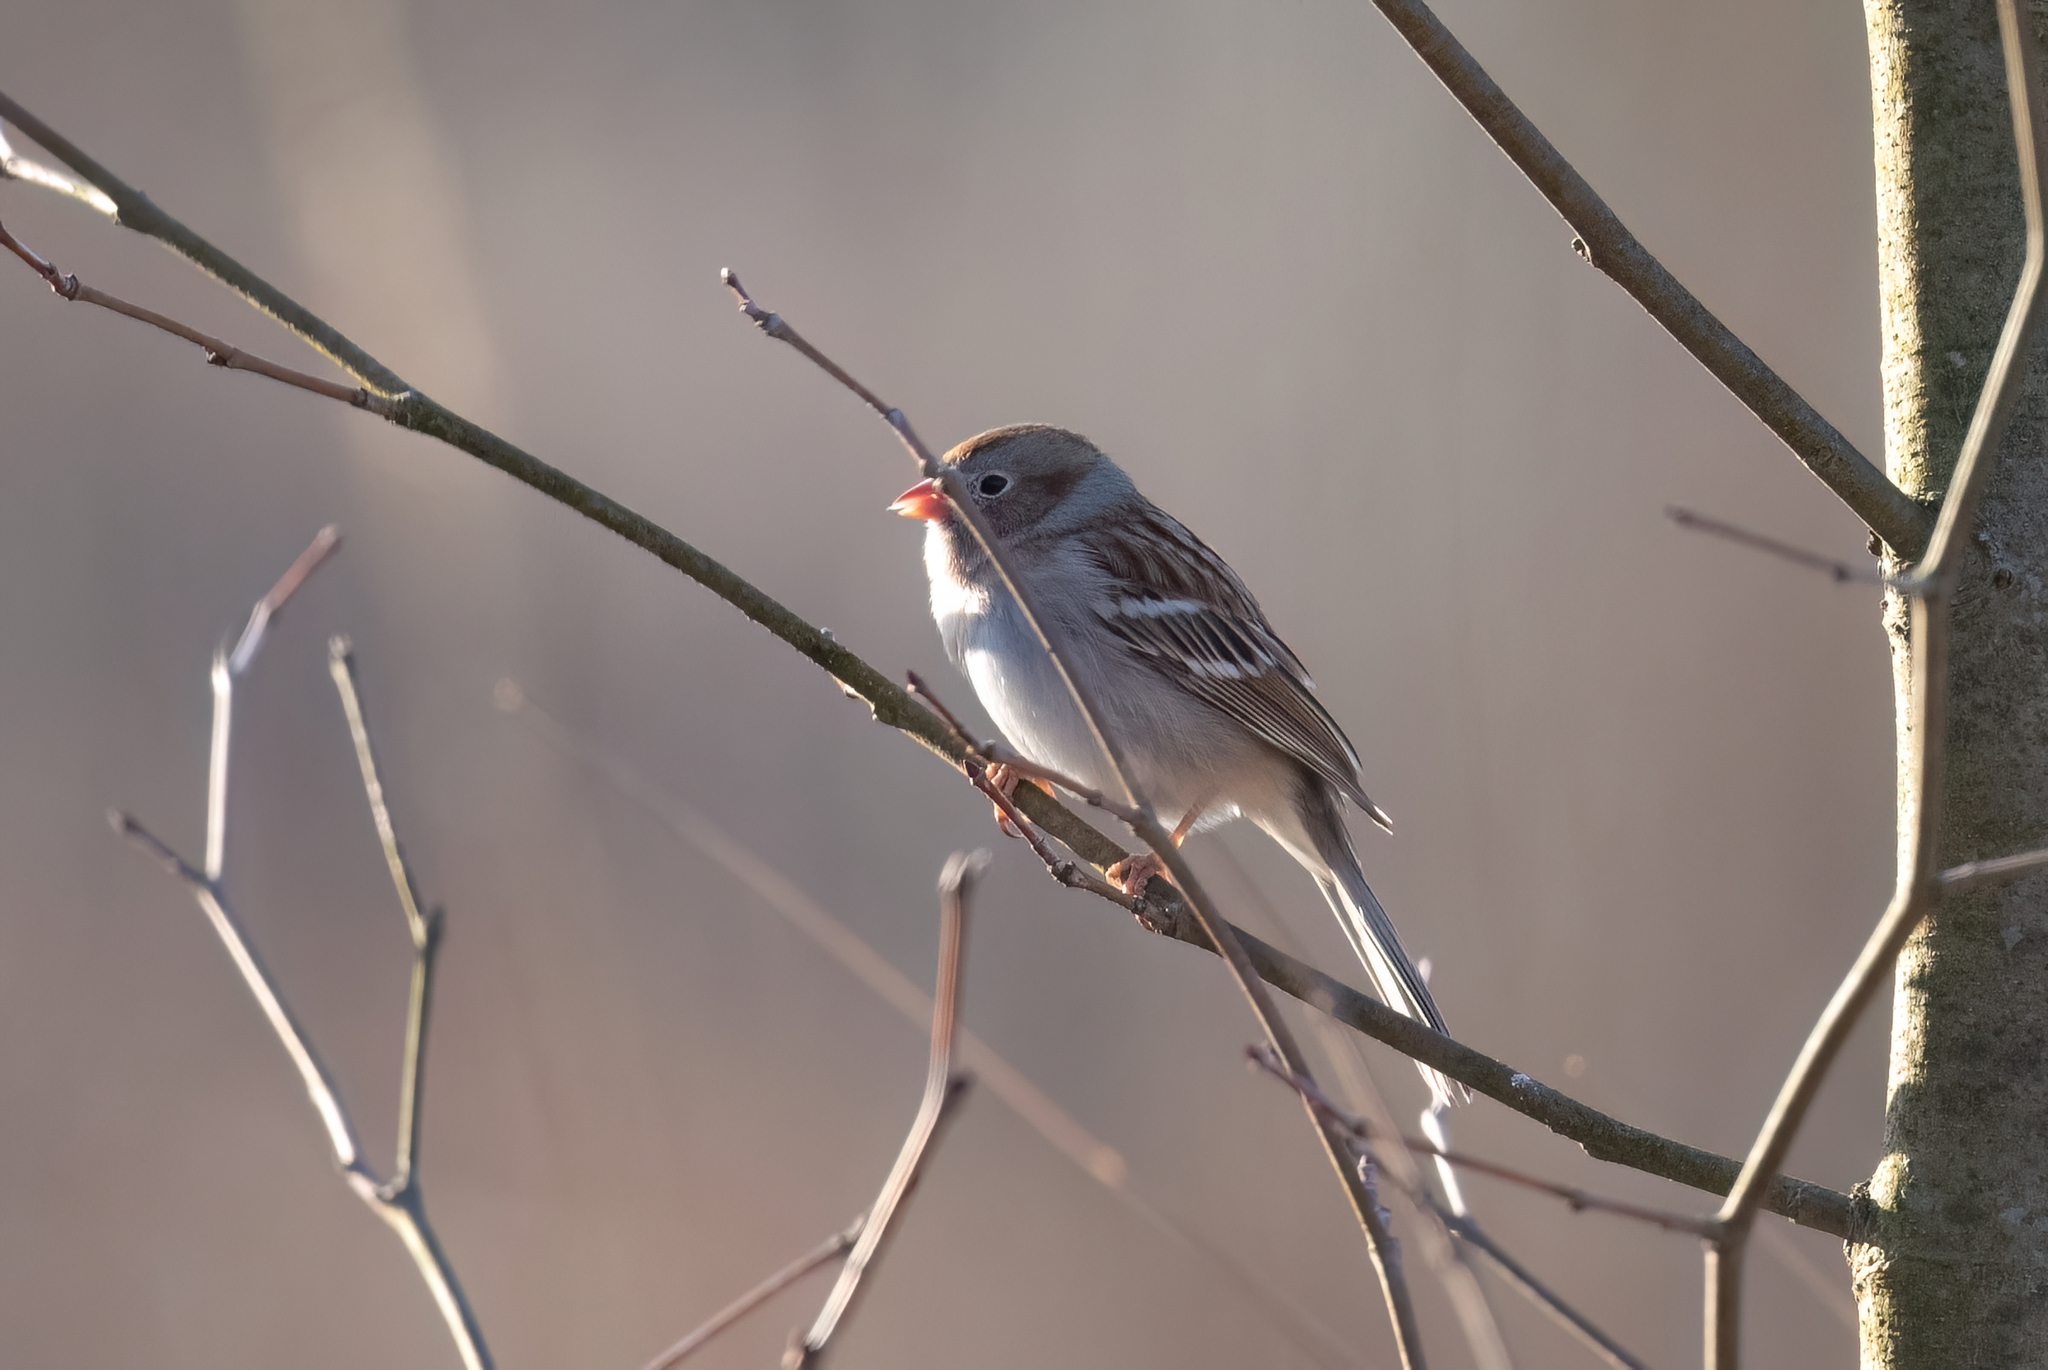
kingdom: Animalia
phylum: Chordata
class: Aves
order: Passeriformes
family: Passerellidae
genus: Spizella
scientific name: Spizella pusilla
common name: Field sparrow
